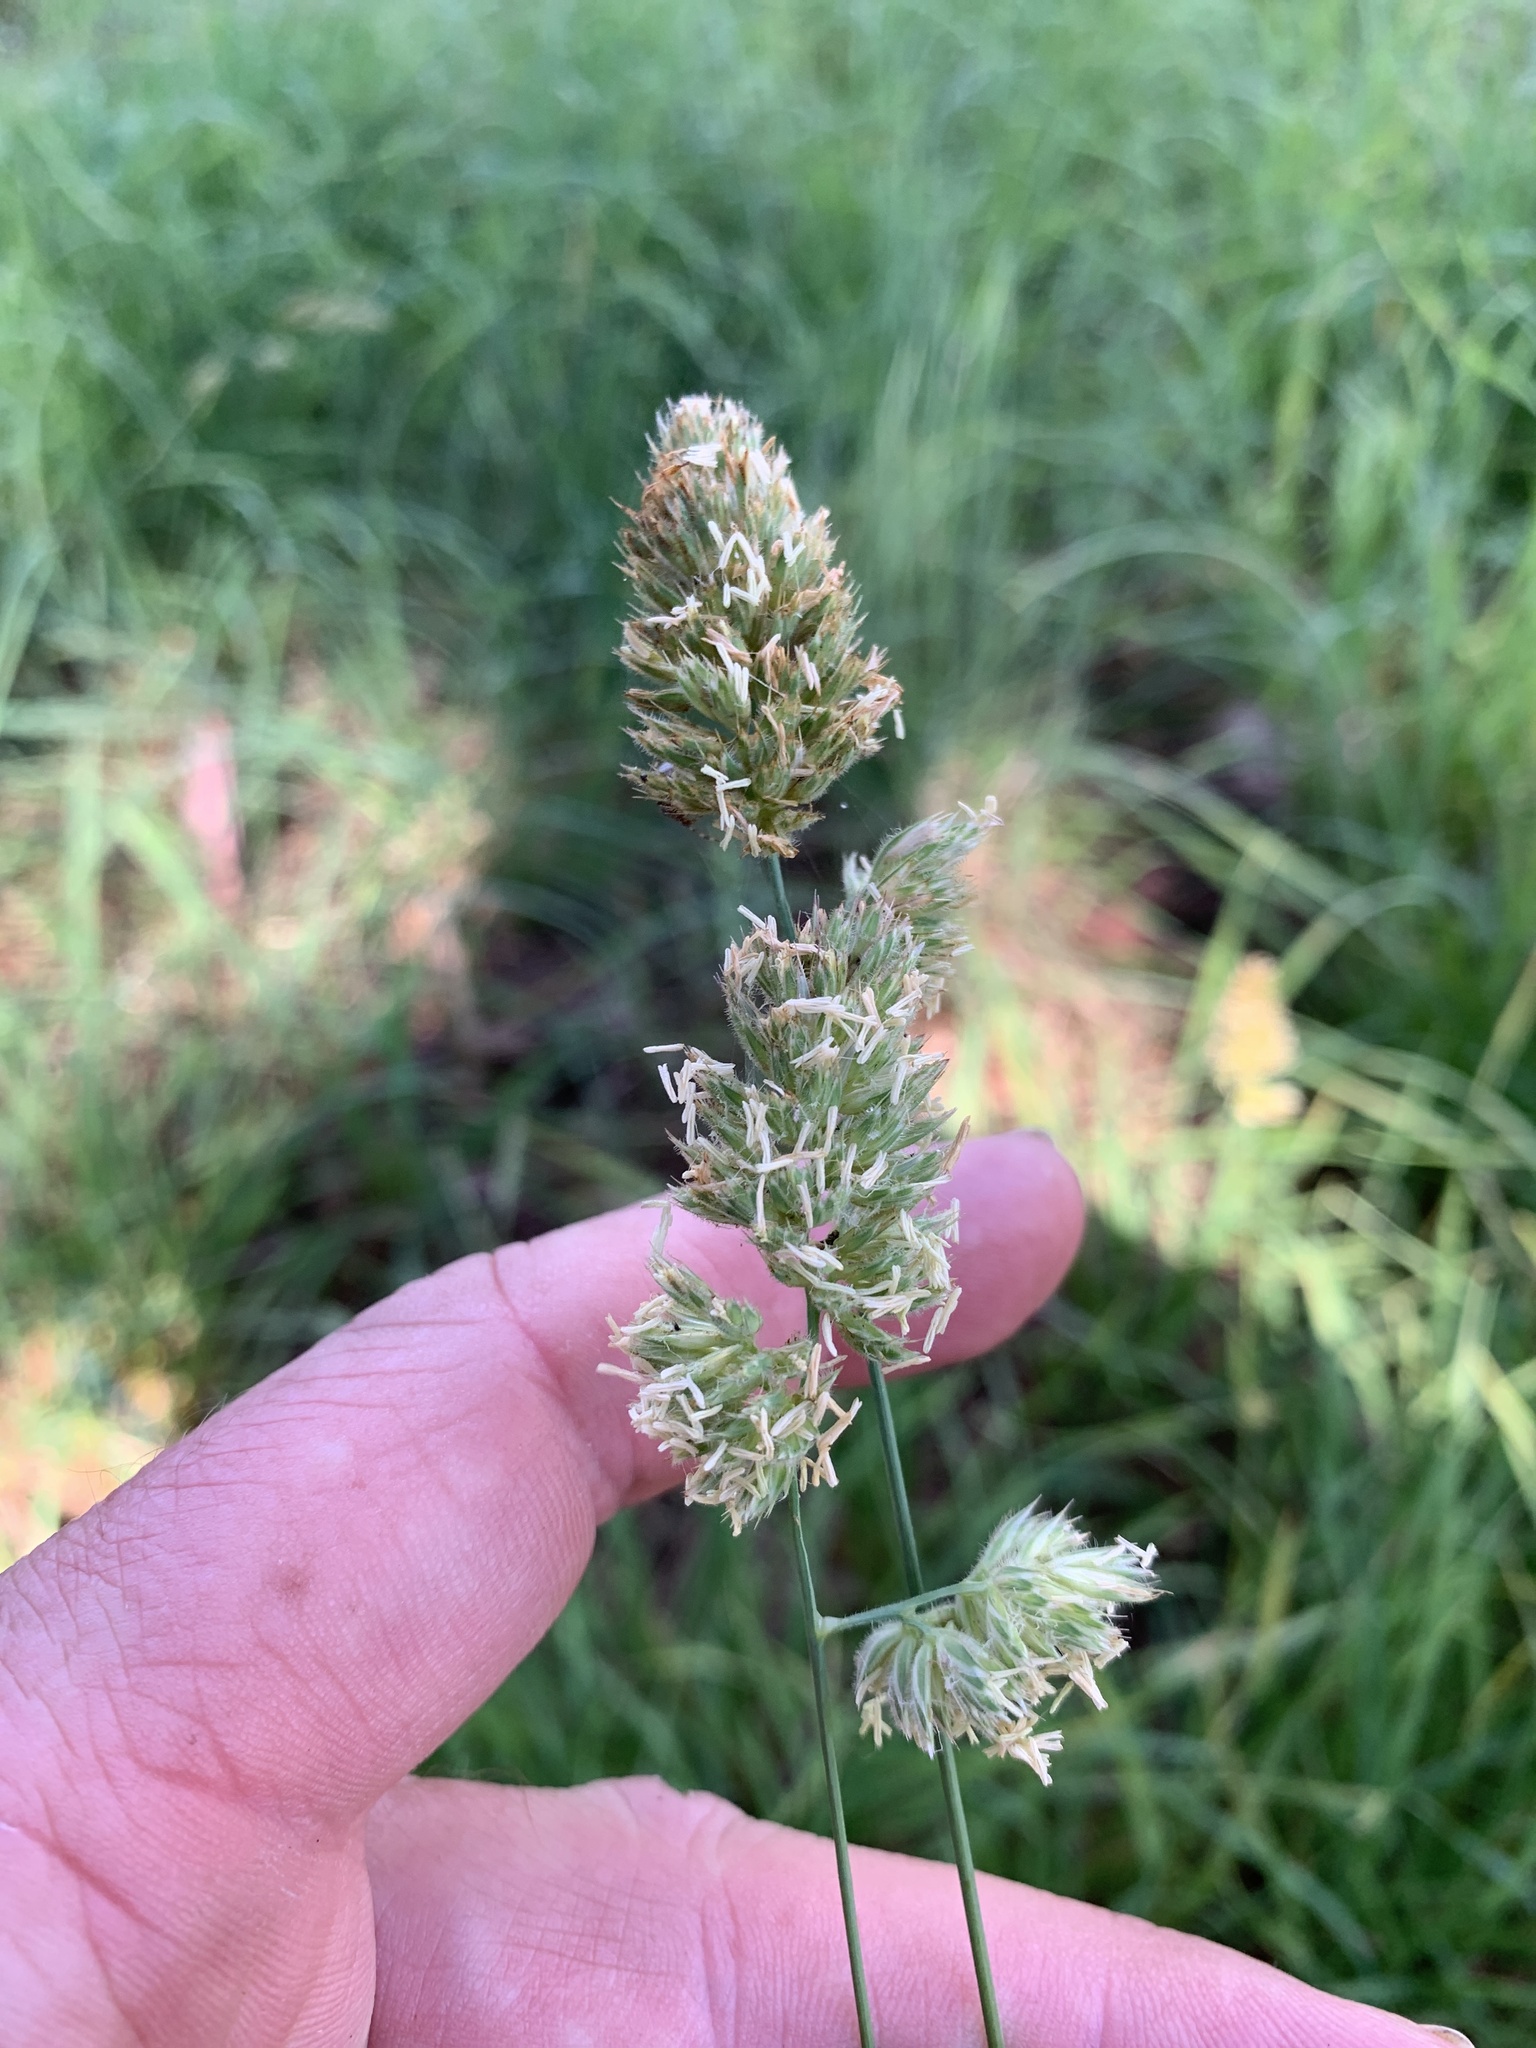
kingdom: Plantae
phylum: Tracheophyta
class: Liliopsida
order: Poales
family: Poaceae
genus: Dactylis
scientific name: Dactylis glomerata
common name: Orchardgrass
